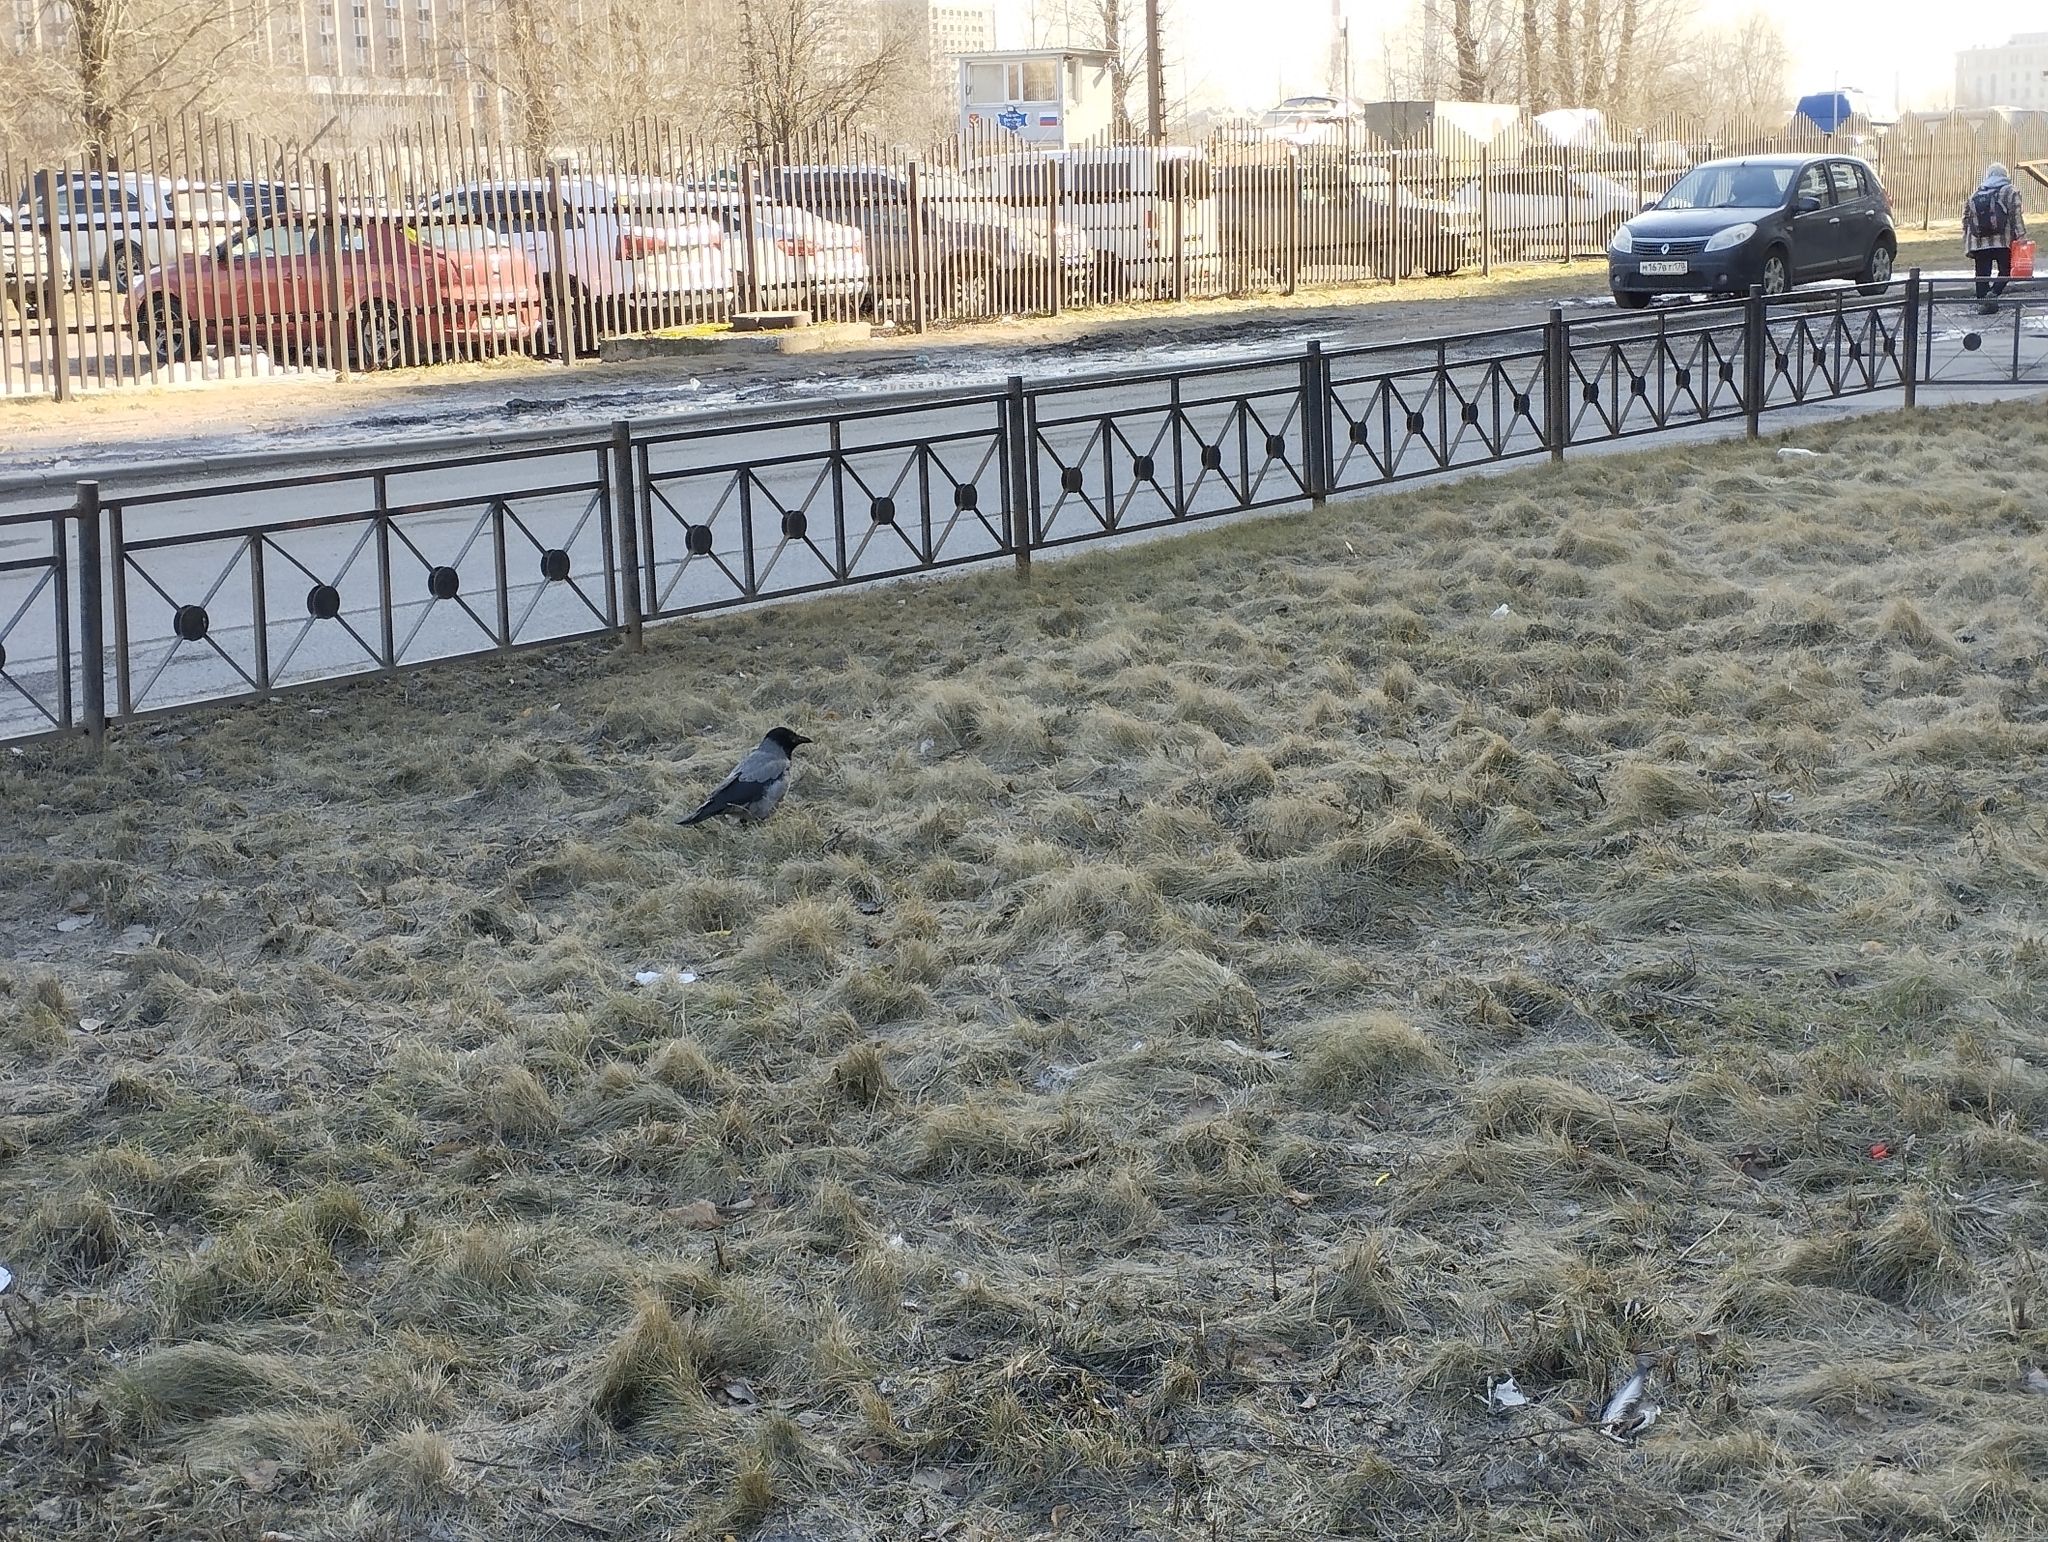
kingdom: Animalia
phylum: Chordata
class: Aves
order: Passeriformes
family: Corvidae
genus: Corvus
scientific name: Corvus cornix
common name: Hooded crow
